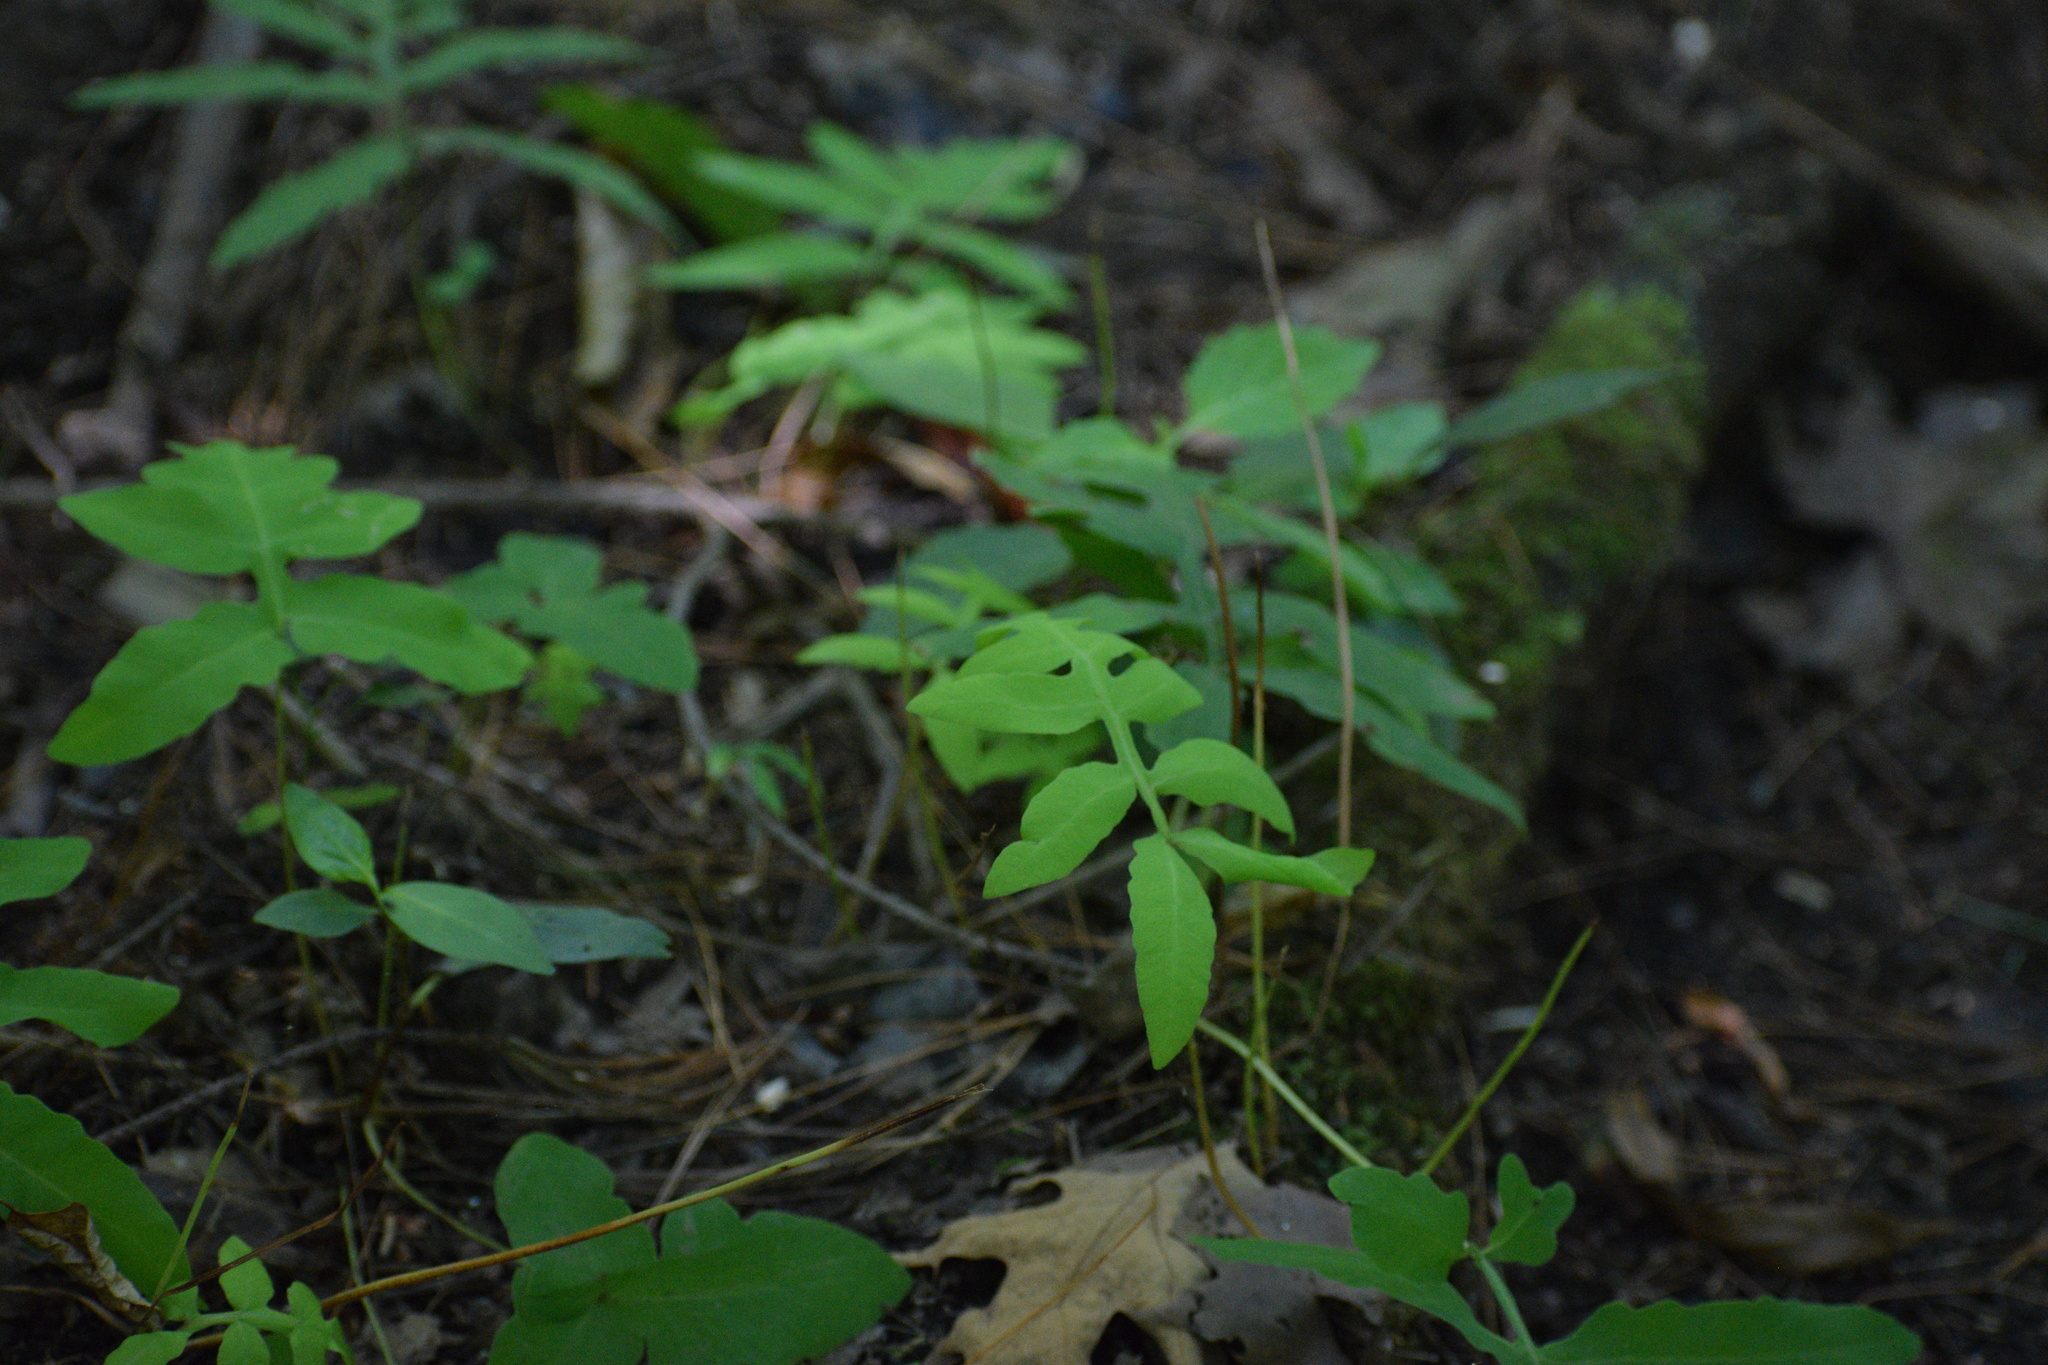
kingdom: Plantae
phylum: Tracheophyta
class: Polypodiopsida
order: Polypodiales
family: Onocleaceae
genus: Onoclea
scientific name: Onoclea sensibilis
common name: Sensitive fern
